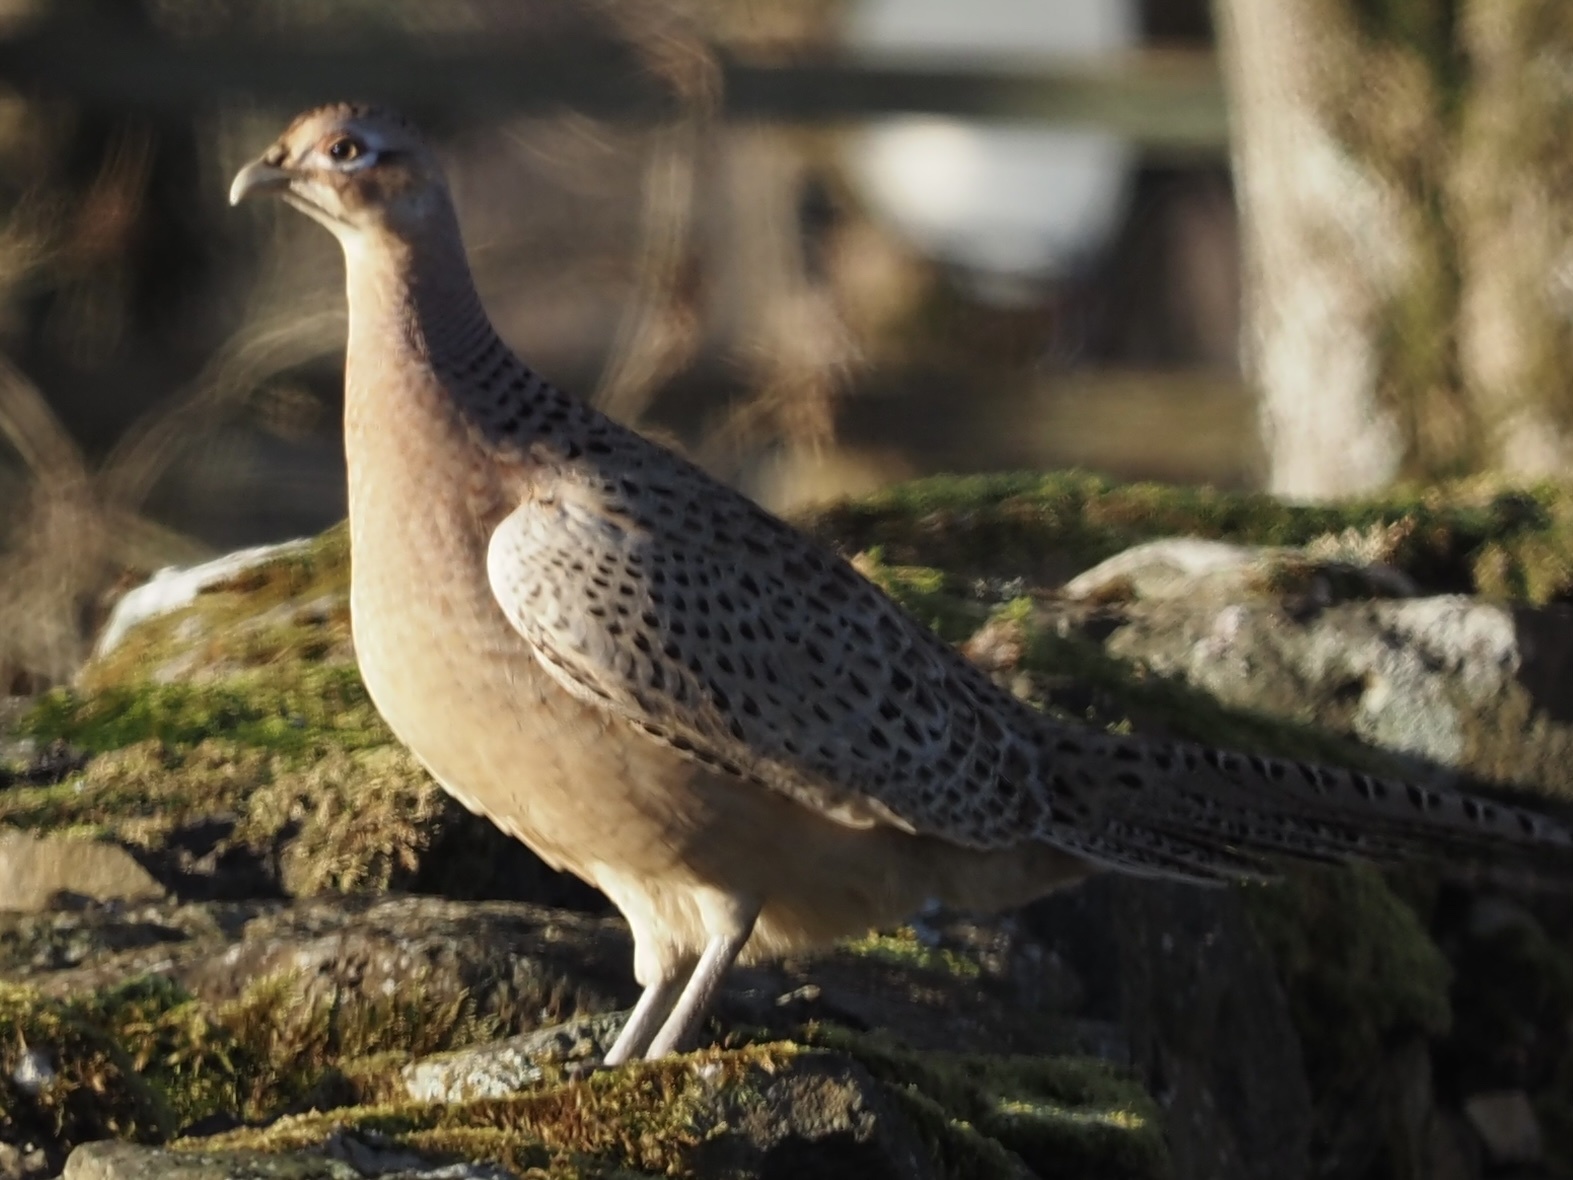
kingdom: Animalia
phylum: Chordata
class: Aves
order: Galliformes
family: Phasianidae
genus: Phasianus
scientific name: Phasianus colchicus
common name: Common pheasant
